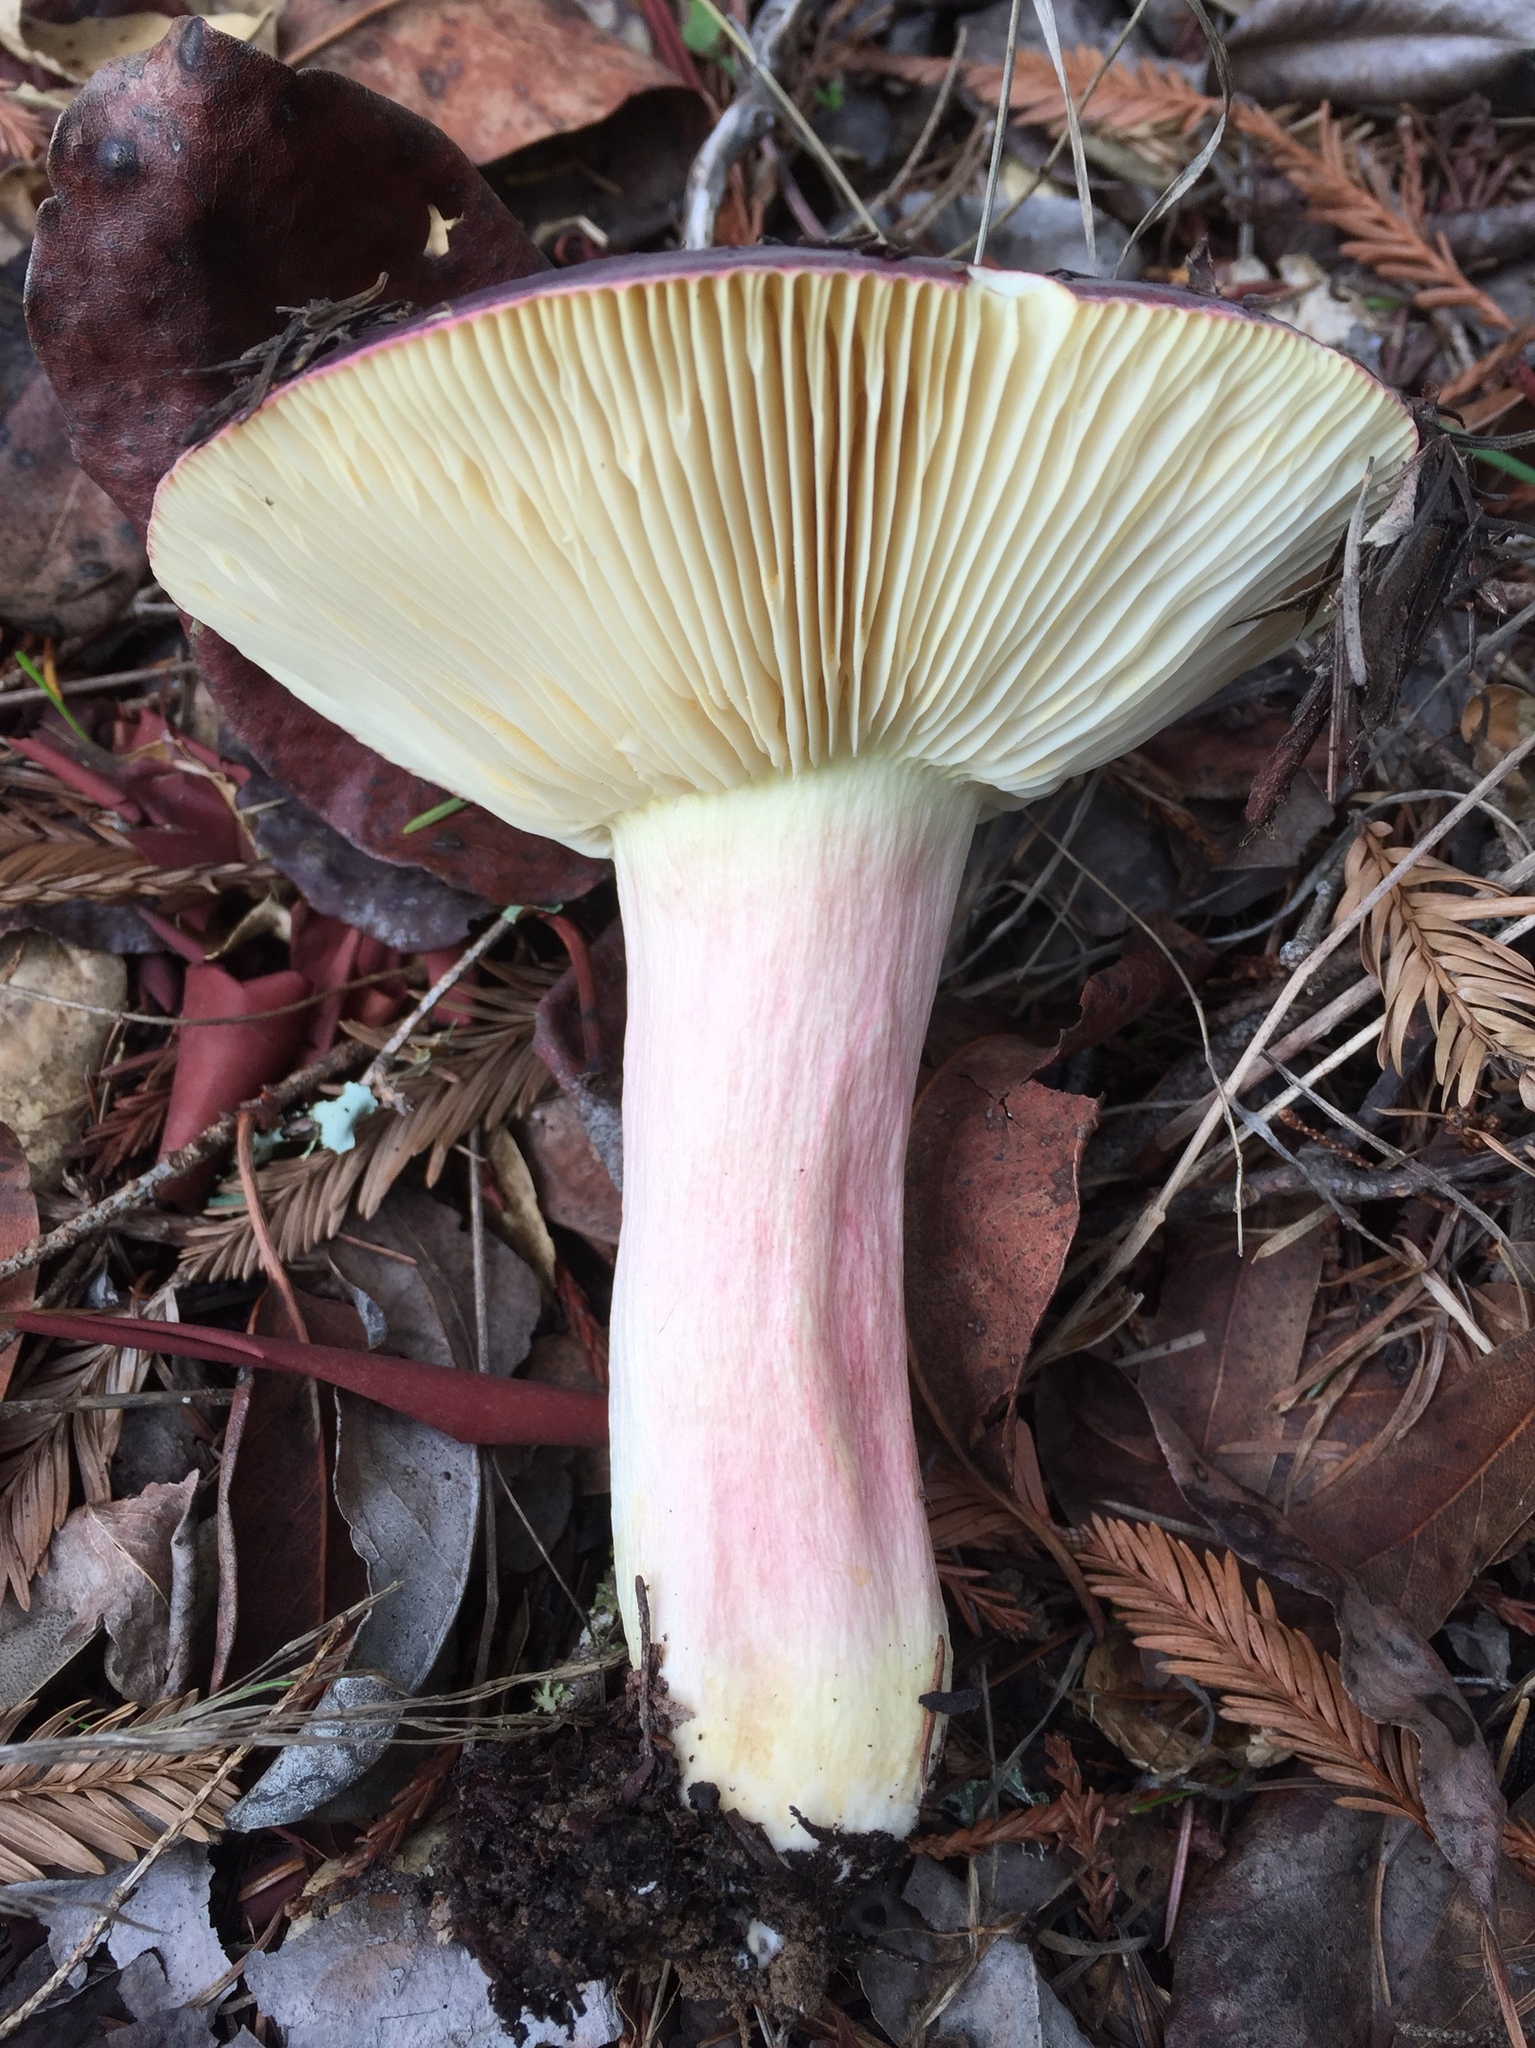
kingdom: Fungi
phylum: Basidiomycota
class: Agaricomycetes
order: Russulales
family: Russulaceae
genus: Russula
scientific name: Russula xerampelina
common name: Crab brittlegill
